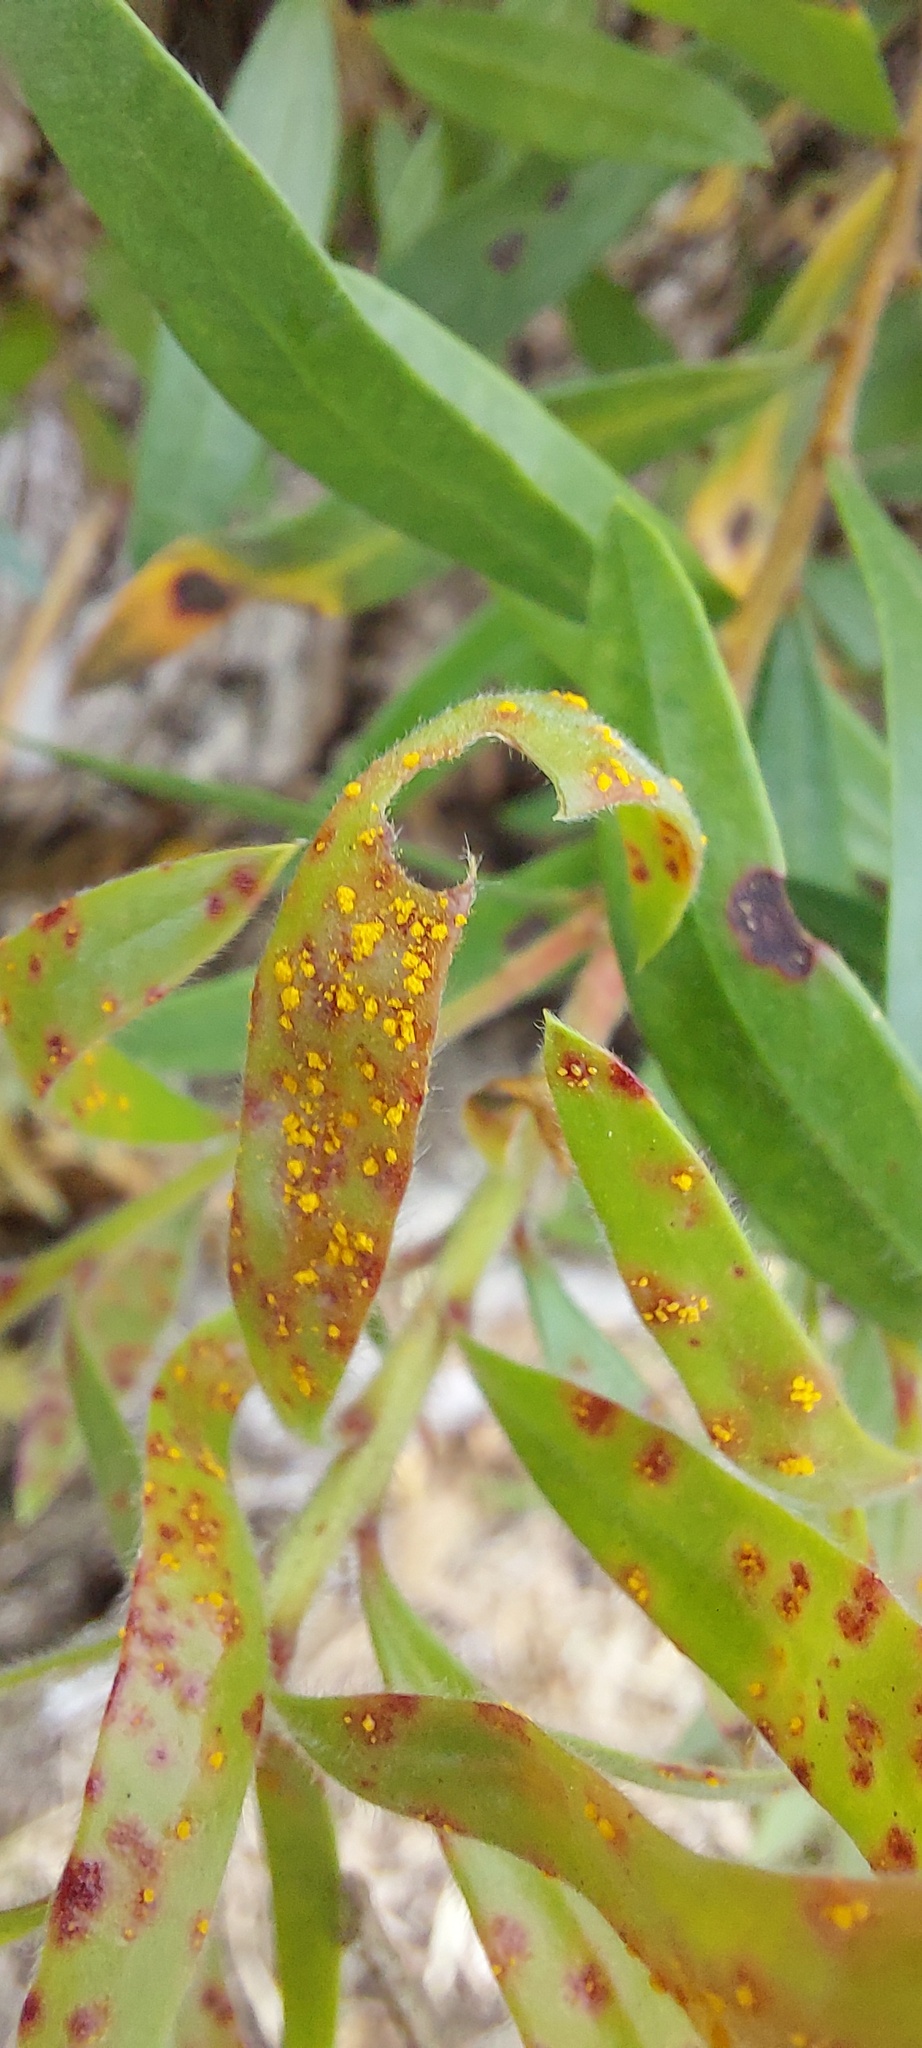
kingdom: Fungi
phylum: Basidiomycota
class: Pucciniomycetes
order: Pucciniales
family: Sphaerophragmiaceae
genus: Austropuccinia
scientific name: Austropuccinia psidii
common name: Myrtle rust
